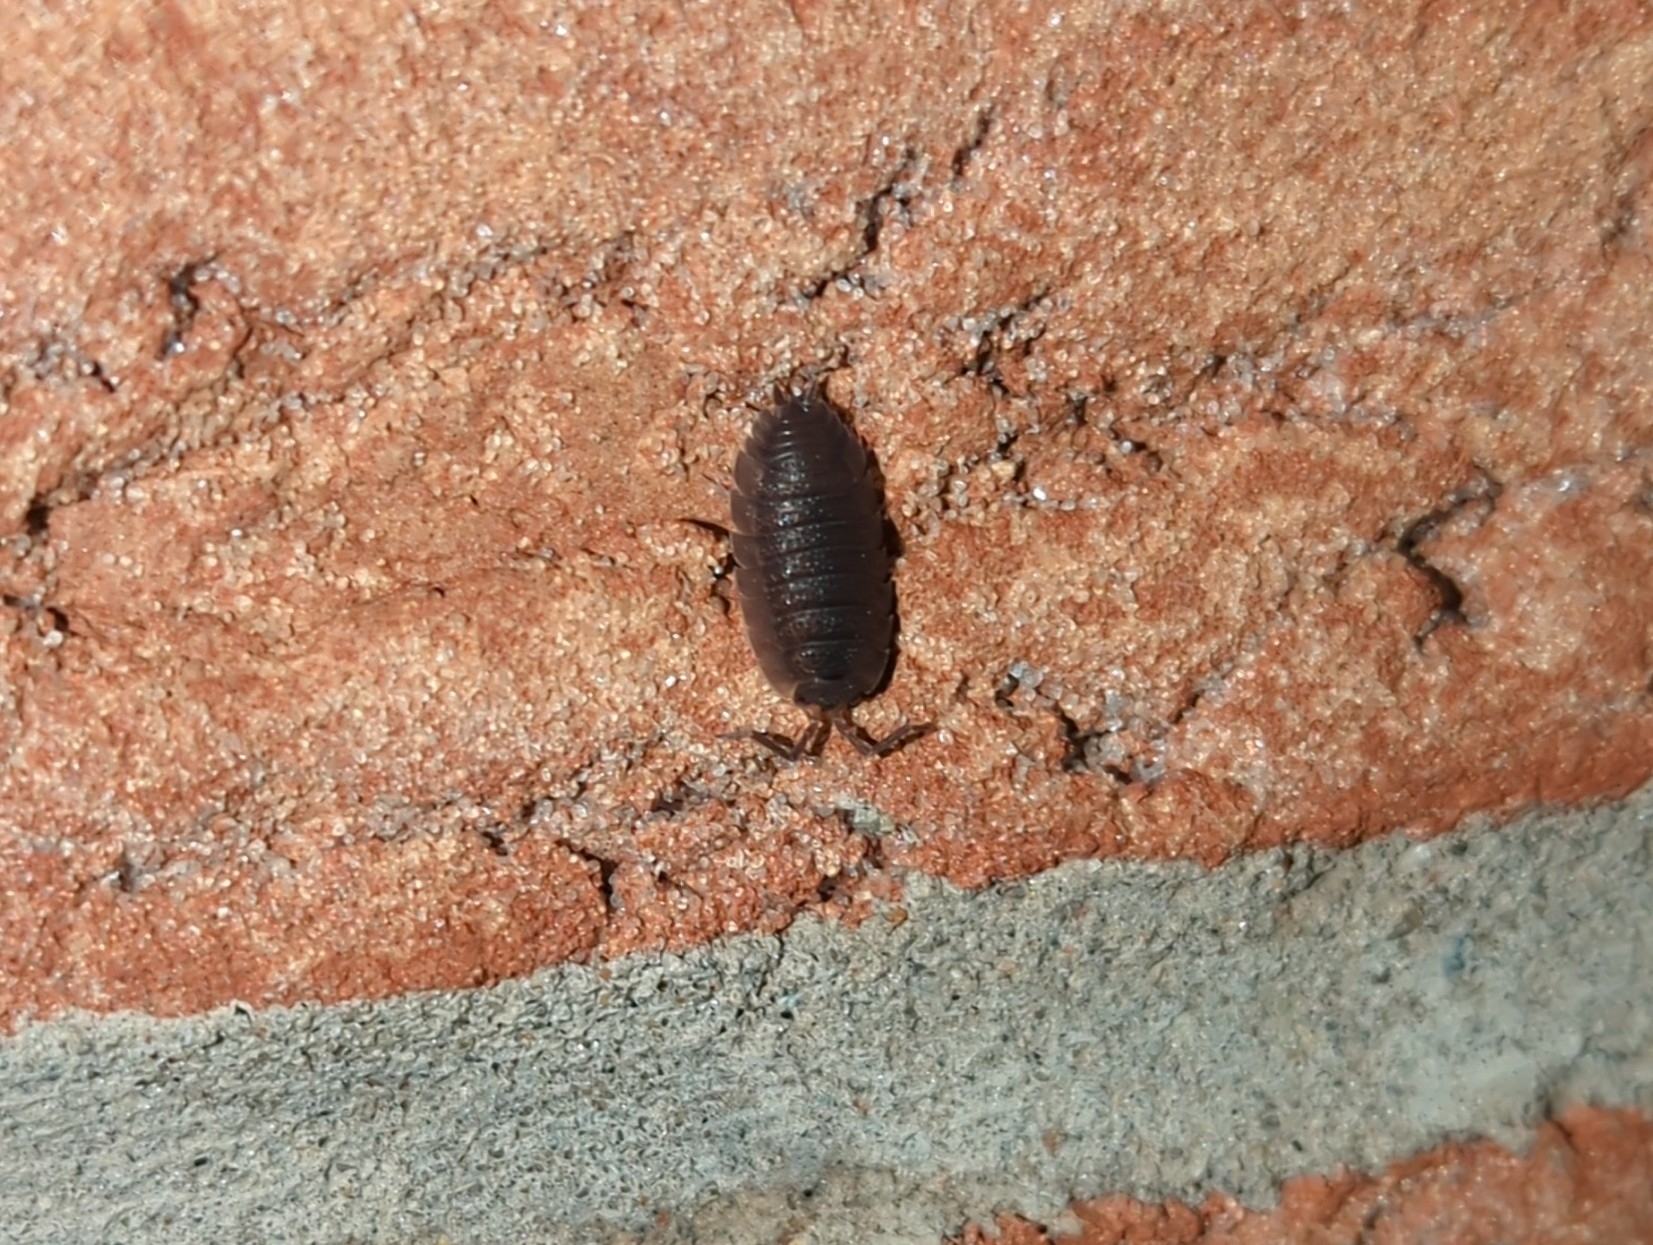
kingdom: Animalia
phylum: Arthropoda
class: Malacostraca
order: Isopoda
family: Porcellionidae
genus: Porcellio
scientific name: Porcellio scaber
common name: Common rough woodlouse
